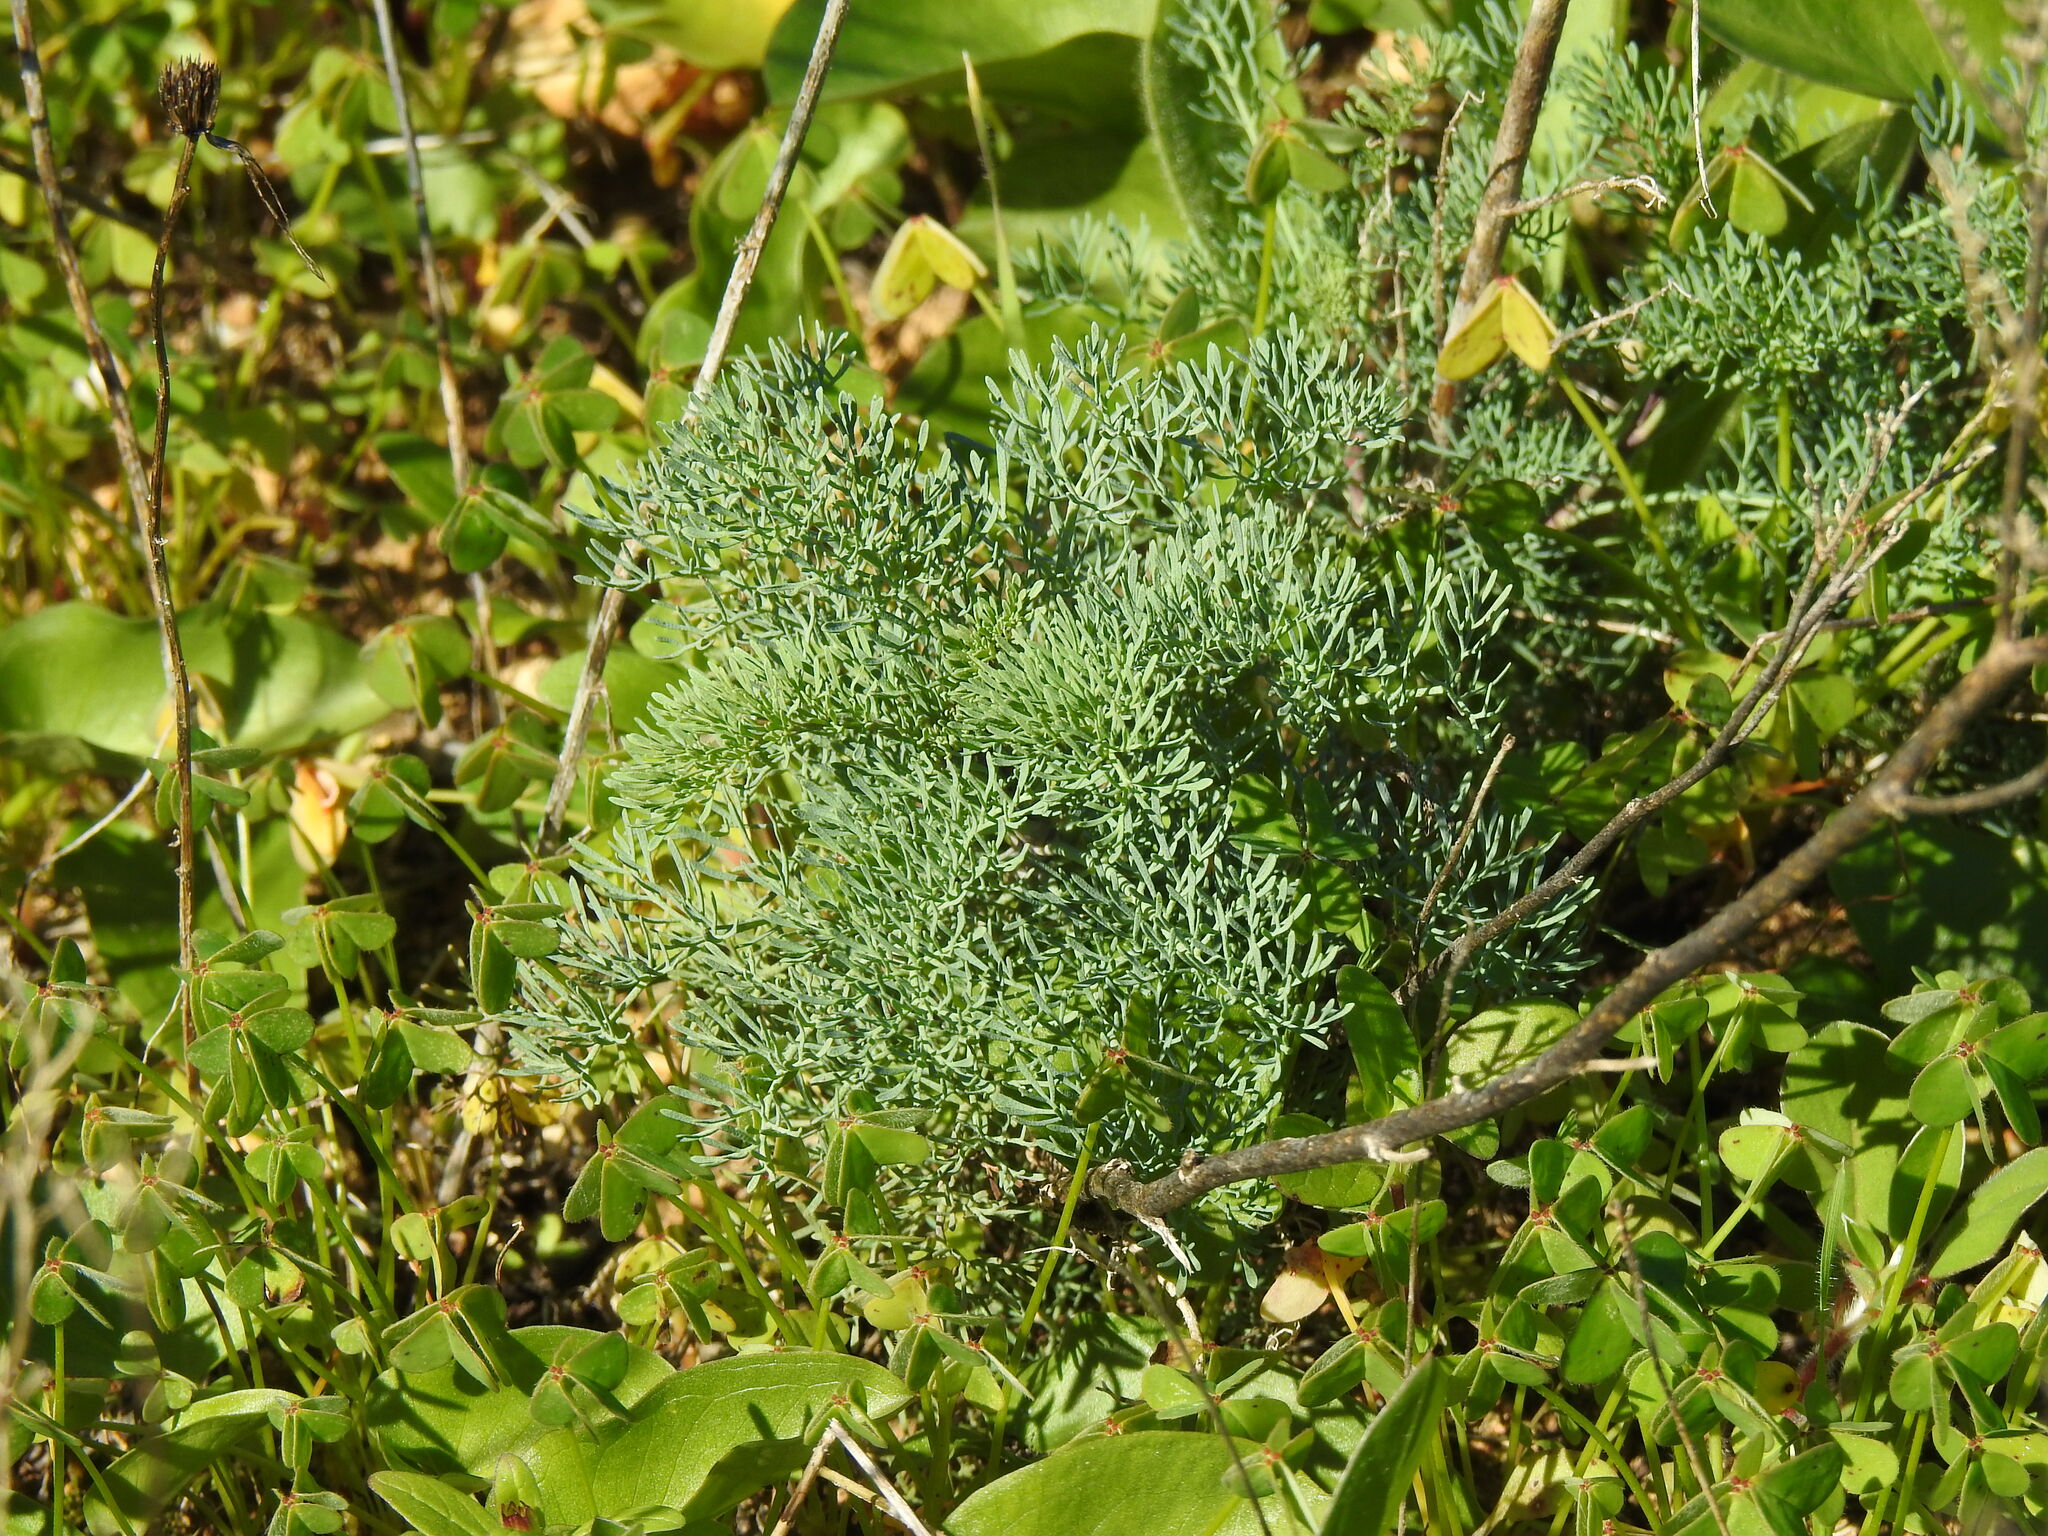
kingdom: Plantae
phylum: Tracheophyta
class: Magnoliopsida
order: Sapindales
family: Rutaceae
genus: Ruta
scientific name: Ruta montana
